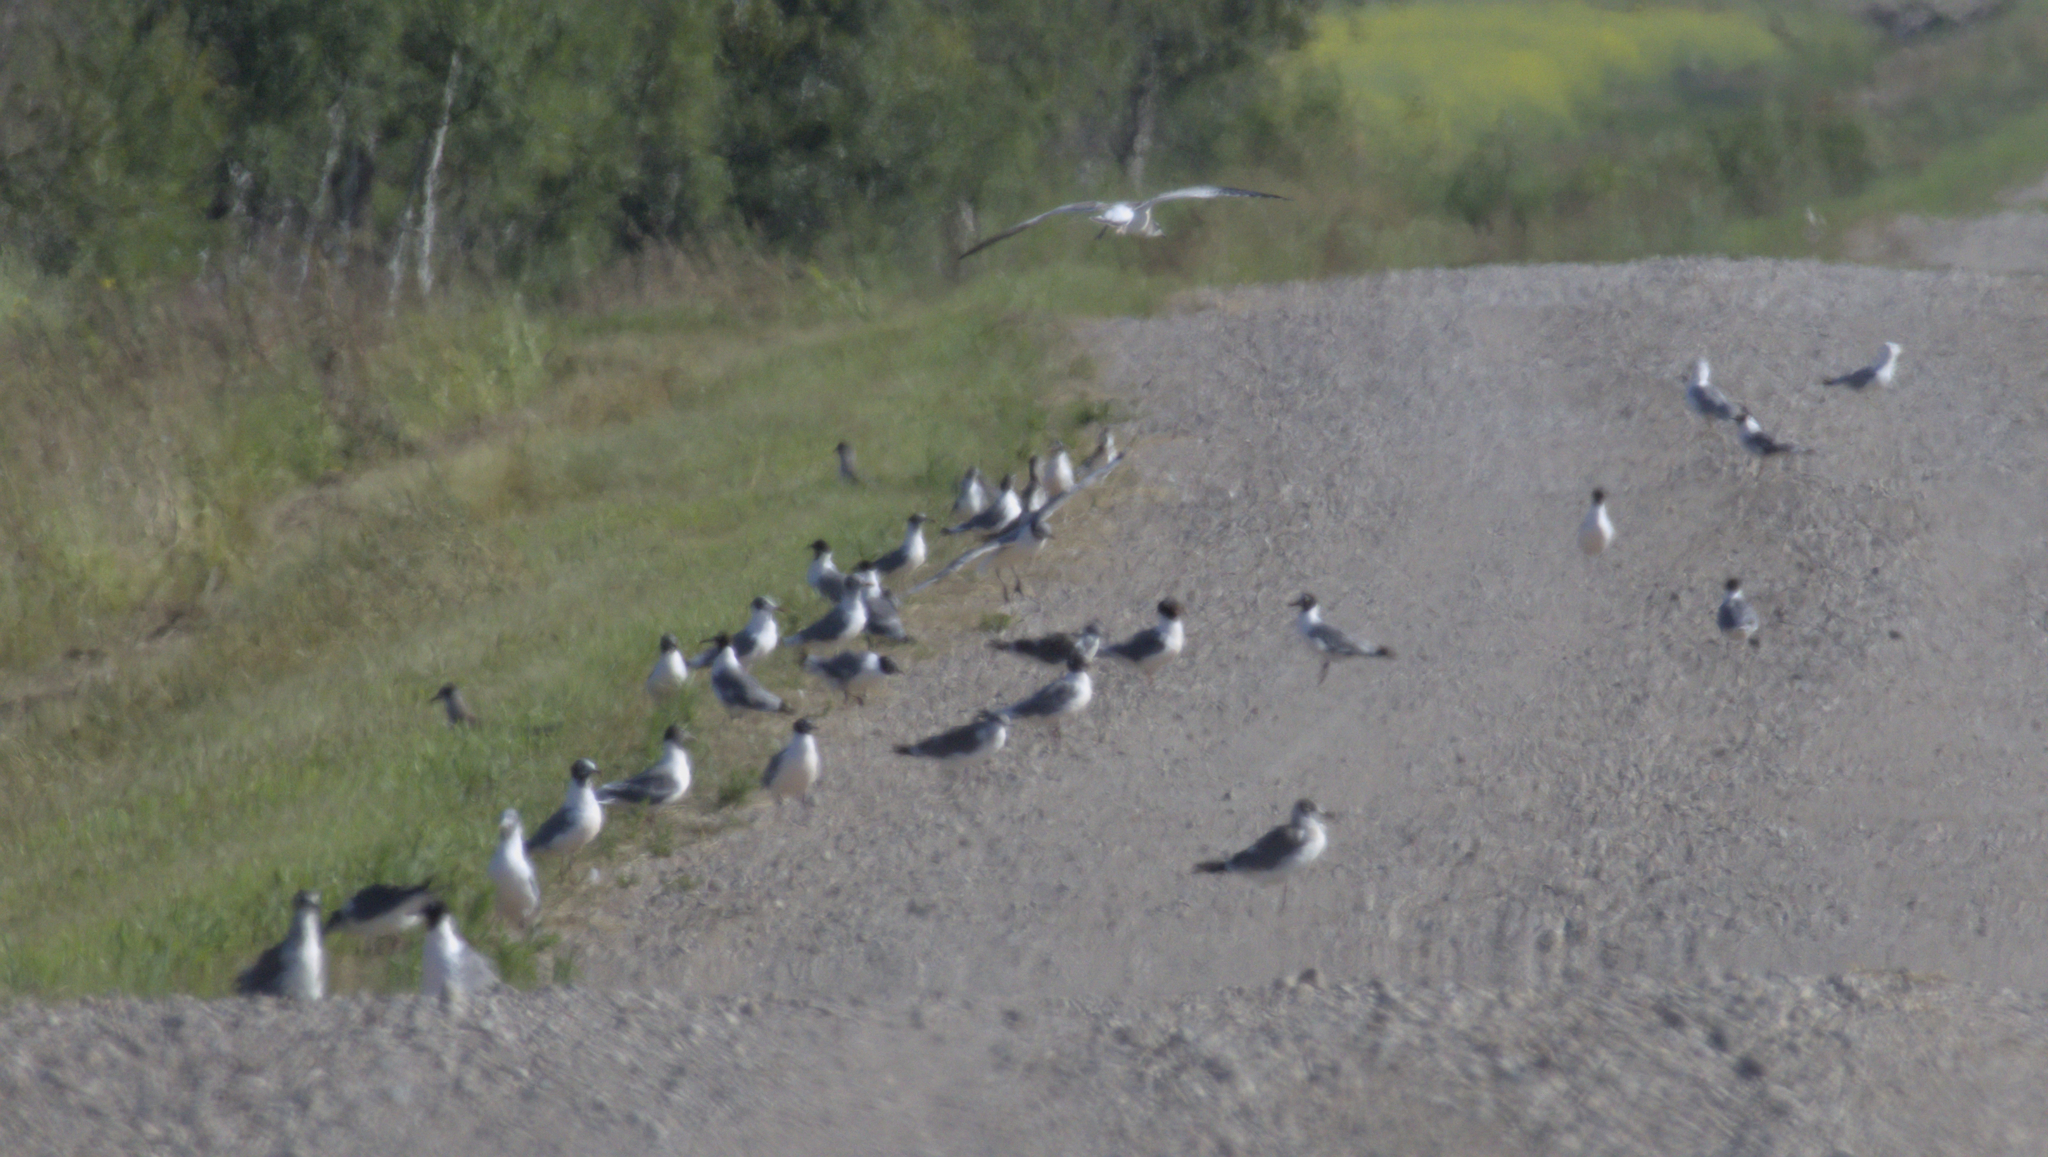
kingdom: Animalia
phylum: Chordata
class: Aves
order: Charadriiformes
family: Laridae
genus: Leucophaeus
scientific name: Leucophaeus pipixcan
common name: Franklin's gull
